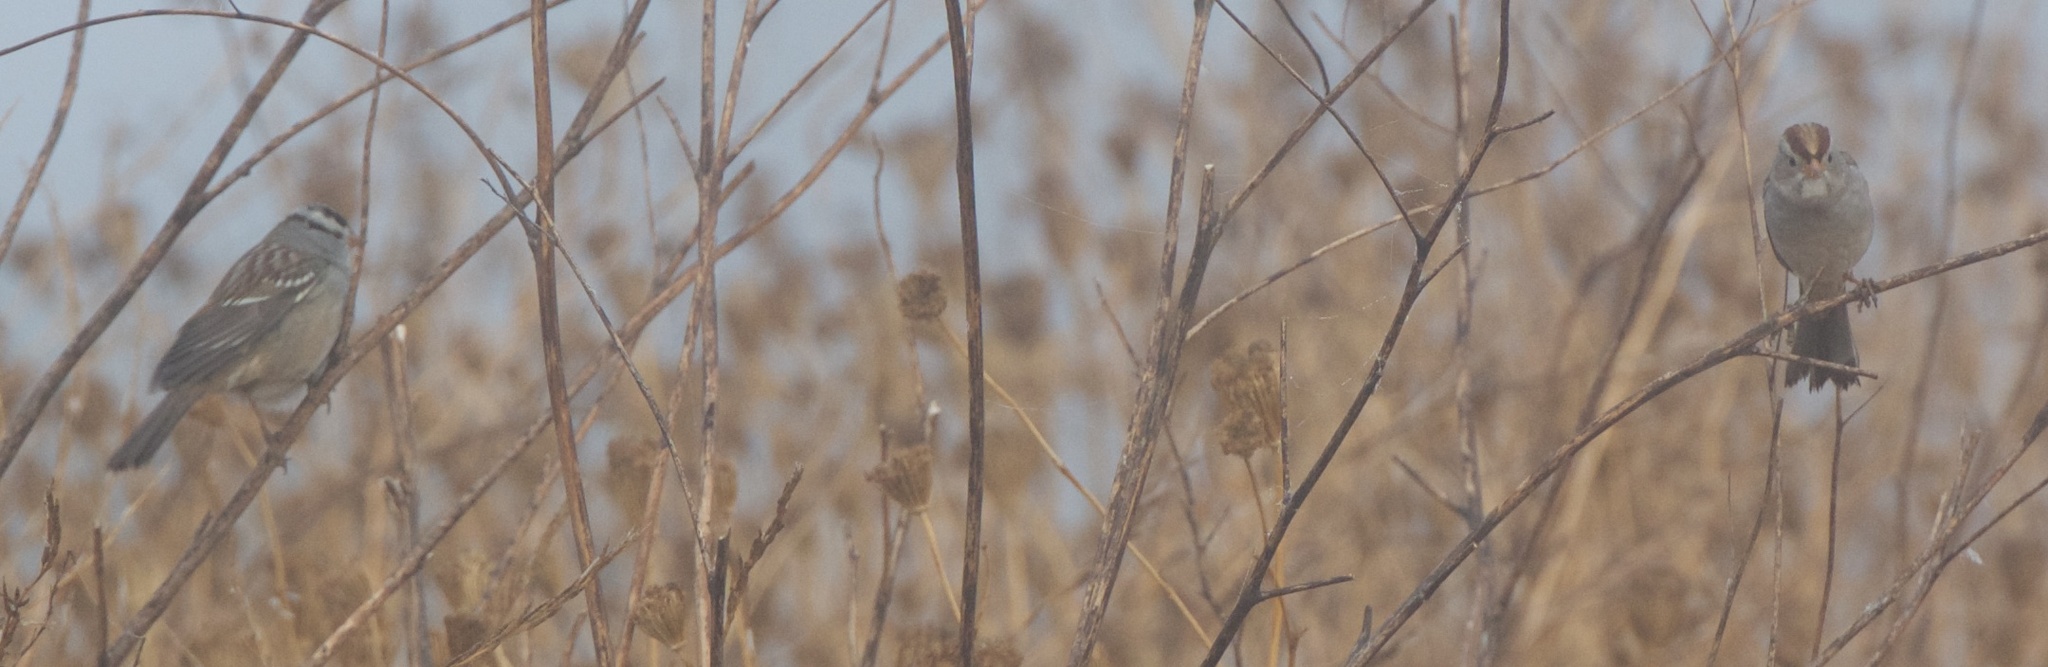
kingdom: Animalia
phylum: Chordata
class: Aves
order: Passeriformes
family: Passerellidae
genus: Zonotrichia
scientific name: Zonotrichia leucophrys
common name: White-crowned sparrow
